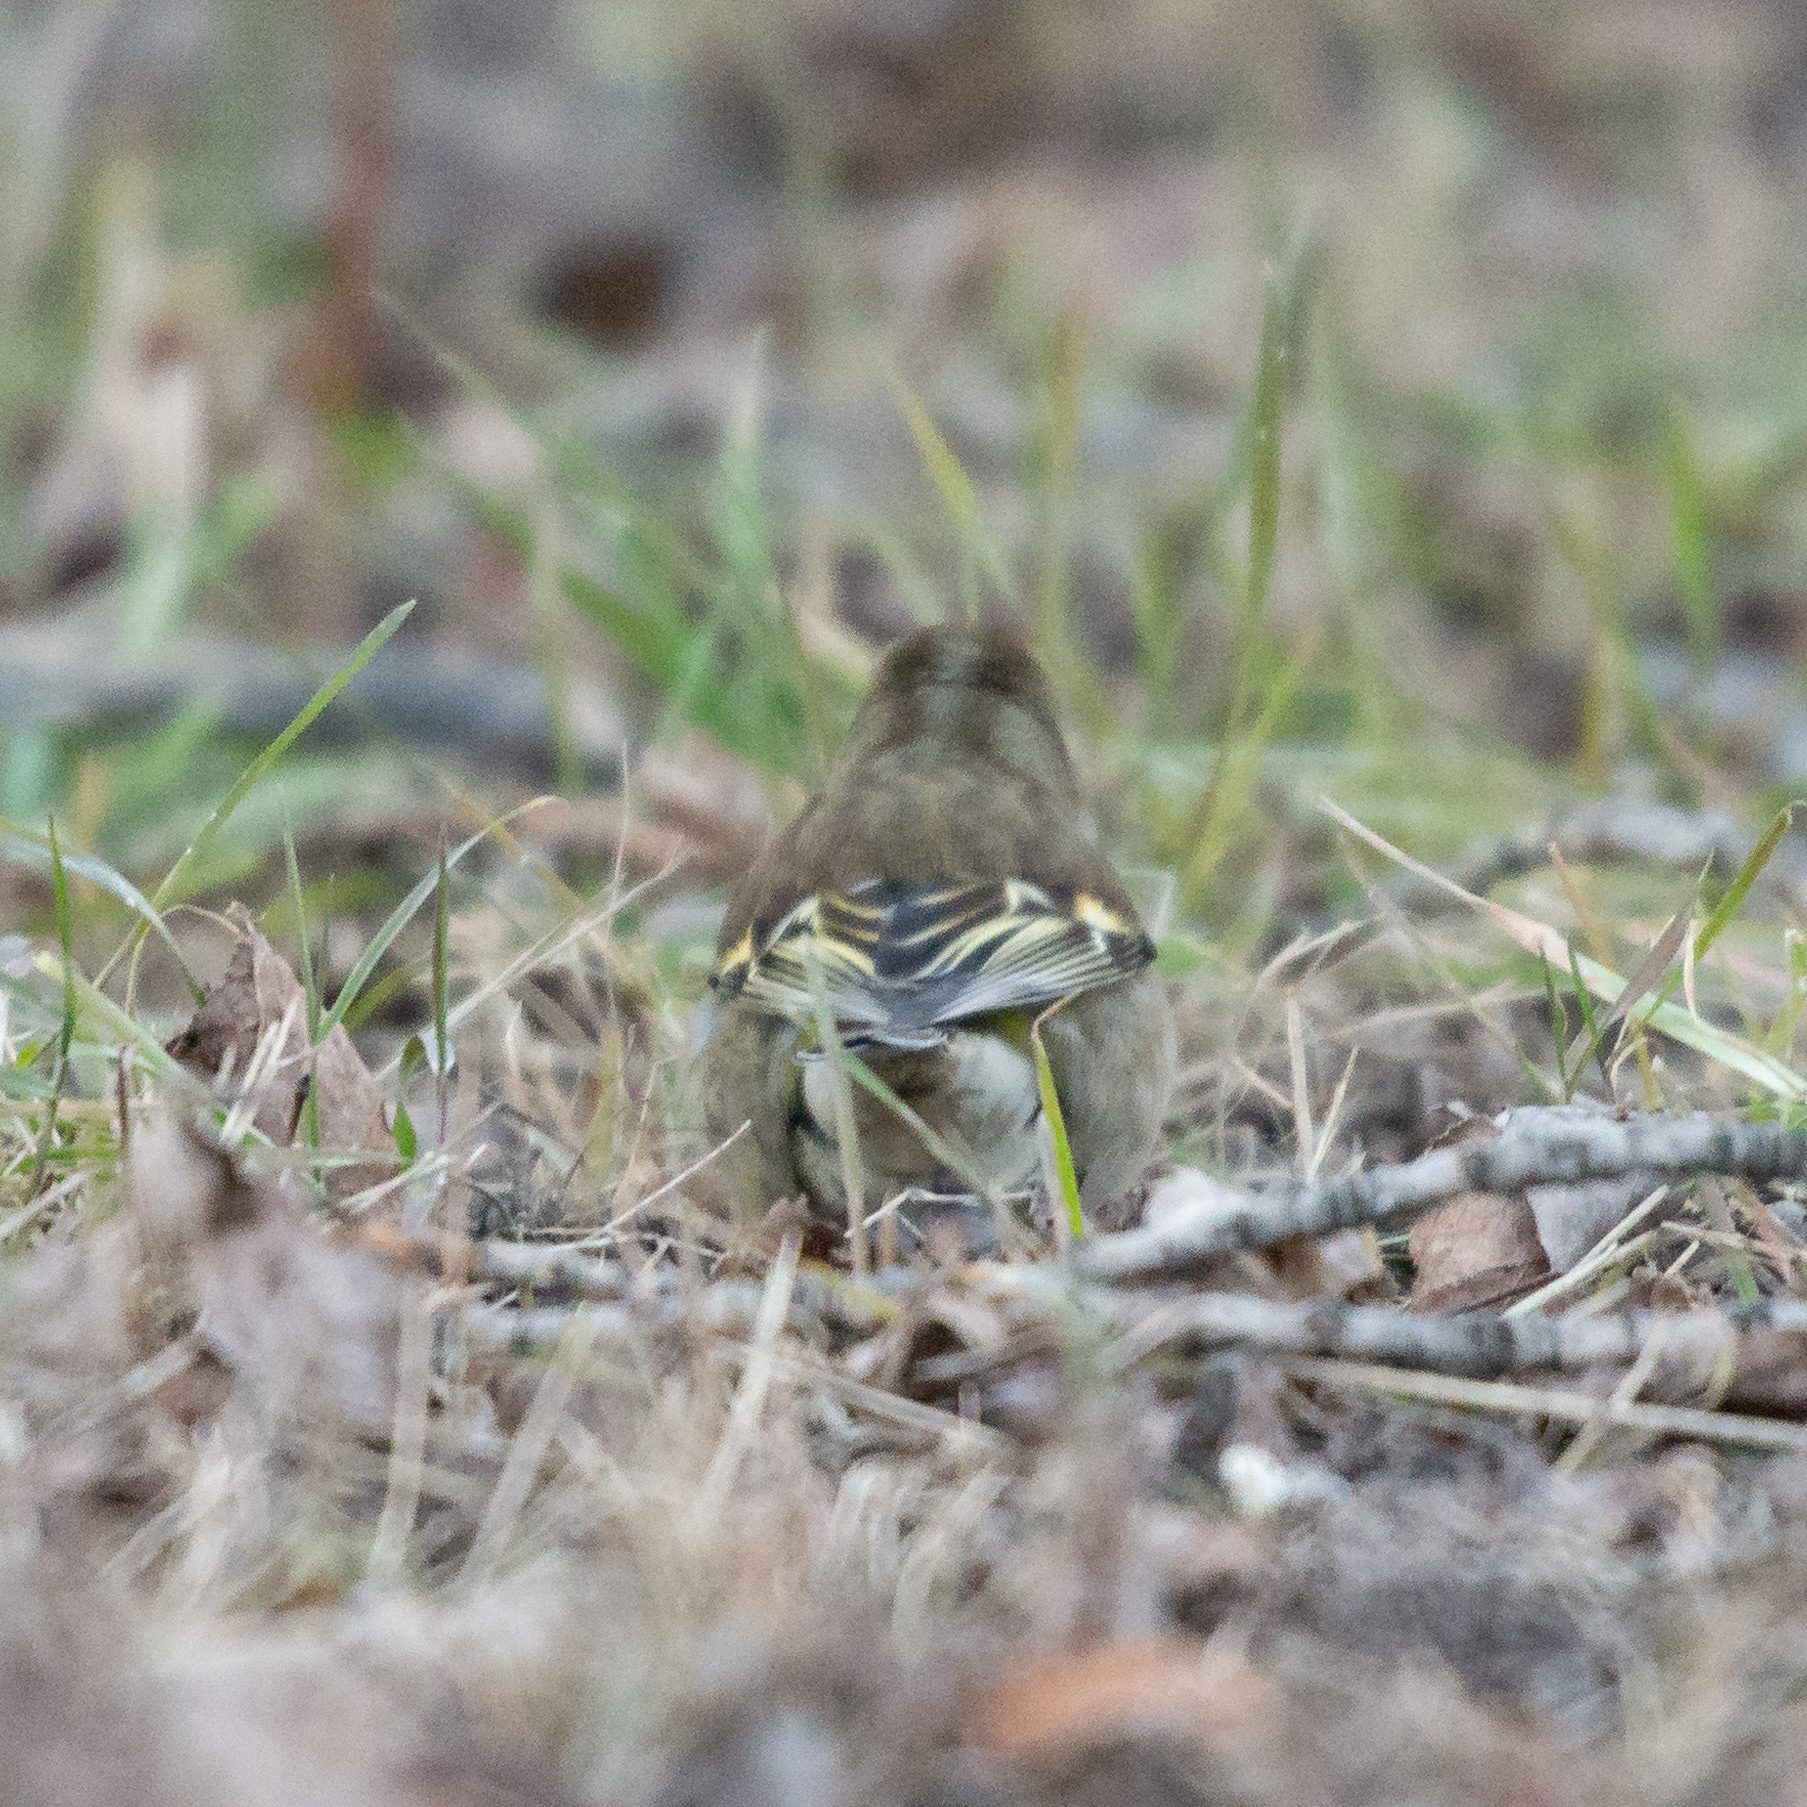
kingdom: Animalia
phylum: Chordata
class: Aves
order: Passeriformes
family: Fringillidae
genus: Fringilla
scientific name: Fringilla coelebs
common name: Common chaffinch
